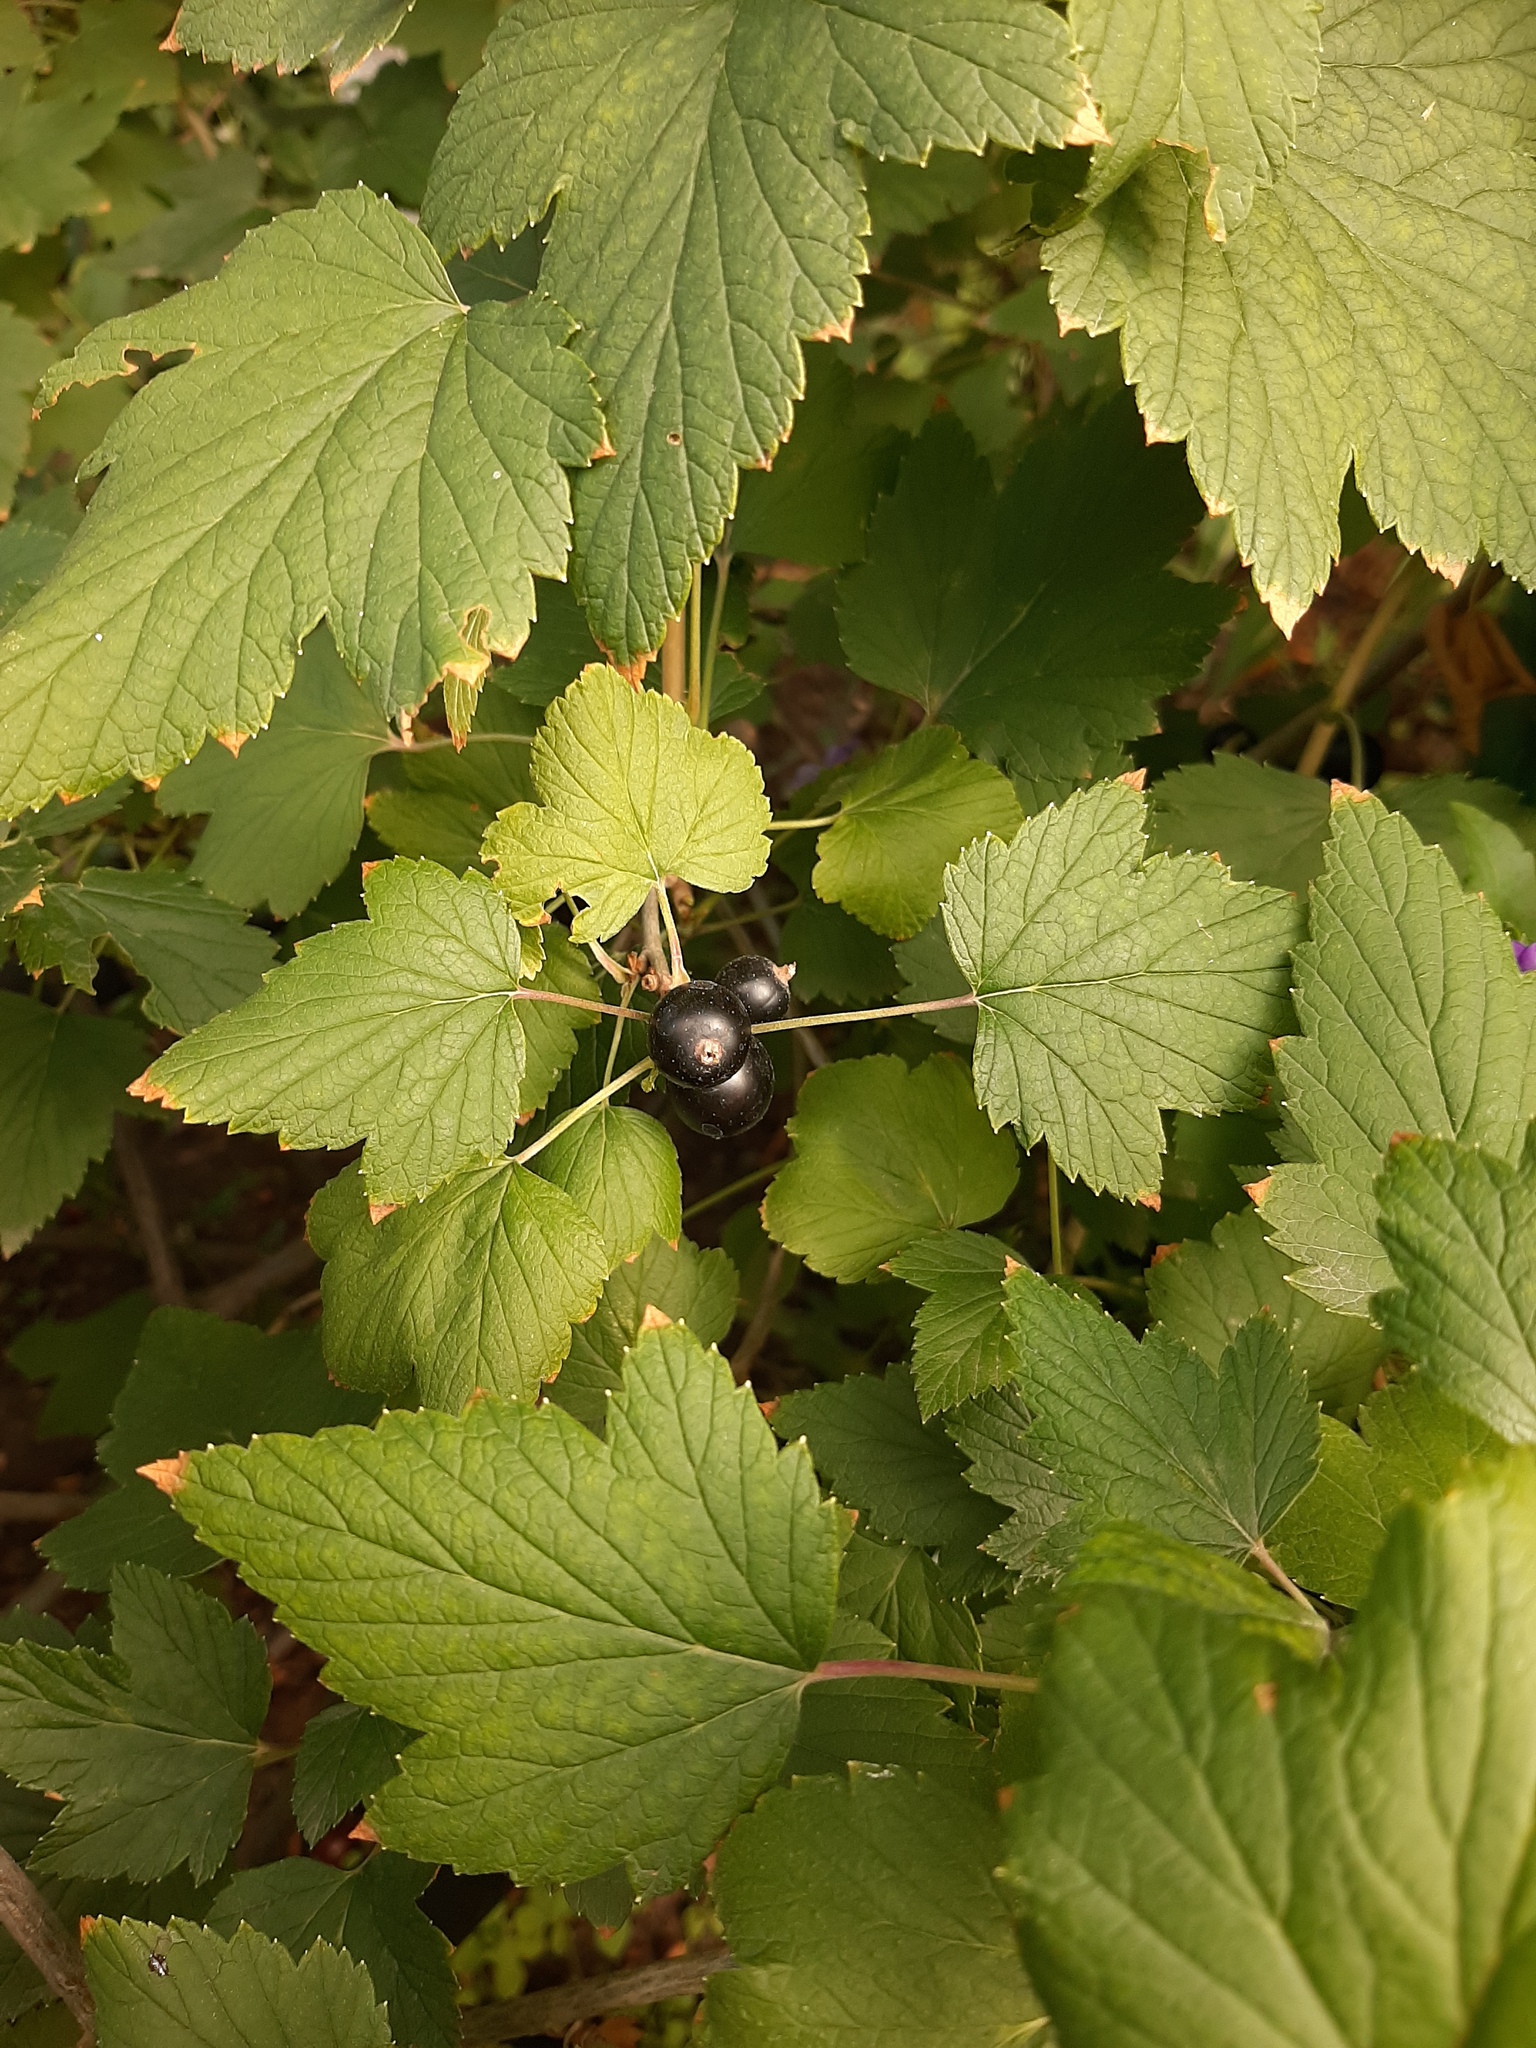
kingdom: Plantae
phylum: Tracheophyta
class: Magnoliopsida
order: Saxifragales
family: Grossulariaceae
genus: Ribes
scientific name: Ribes nigrum
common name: Black currant
